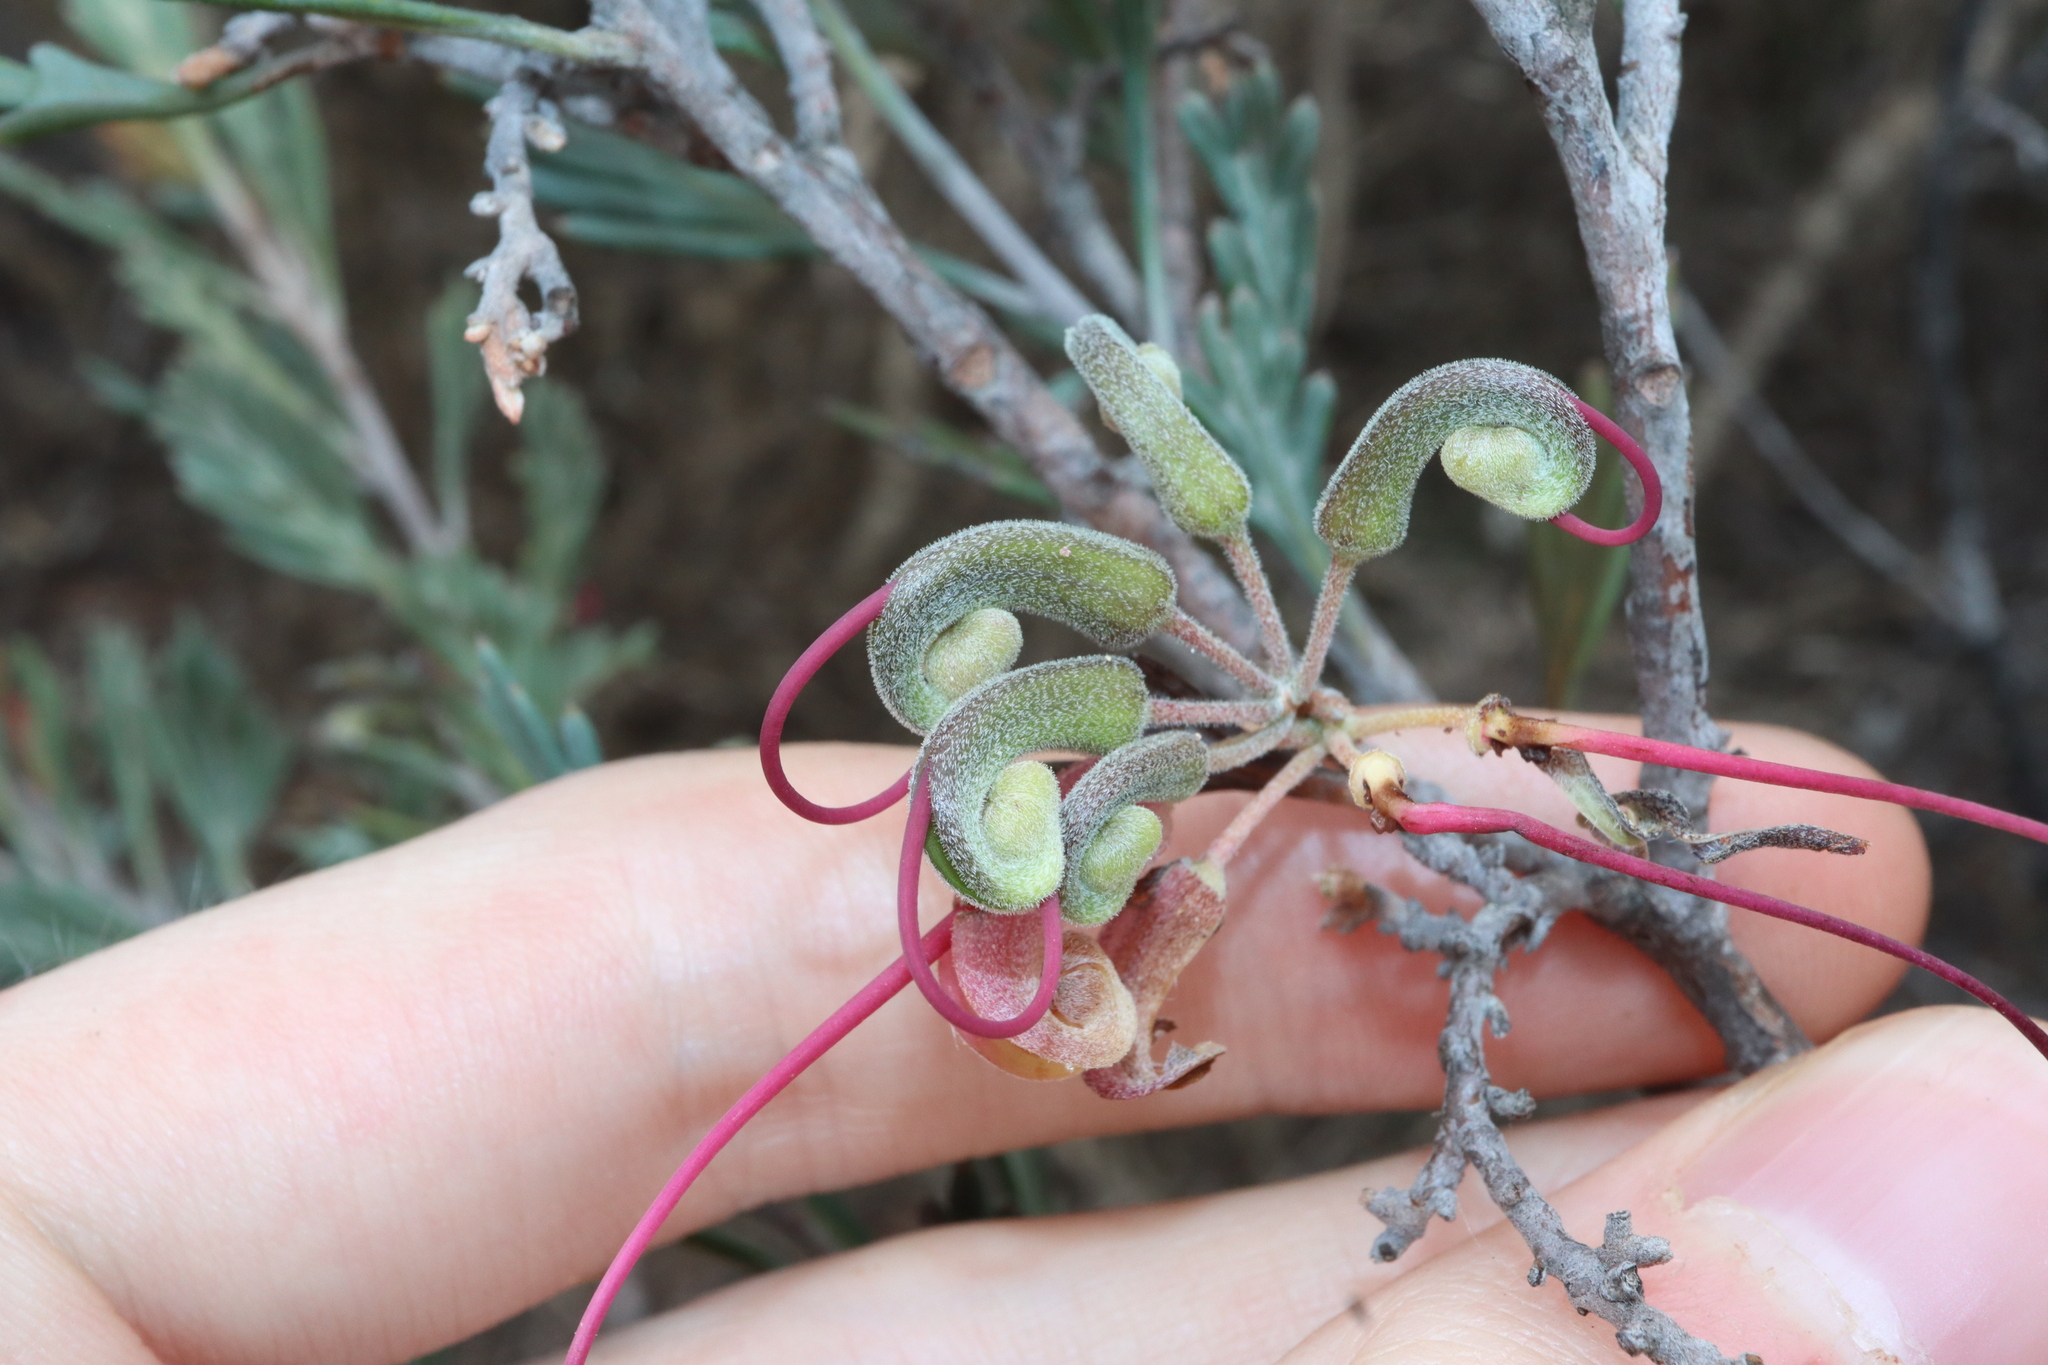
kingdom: Plantae
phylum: Tracheophyta
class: Magnoliopsida
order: Proteales
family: Proteaceae
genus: Grevillea
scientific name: Grevillea pectinata
